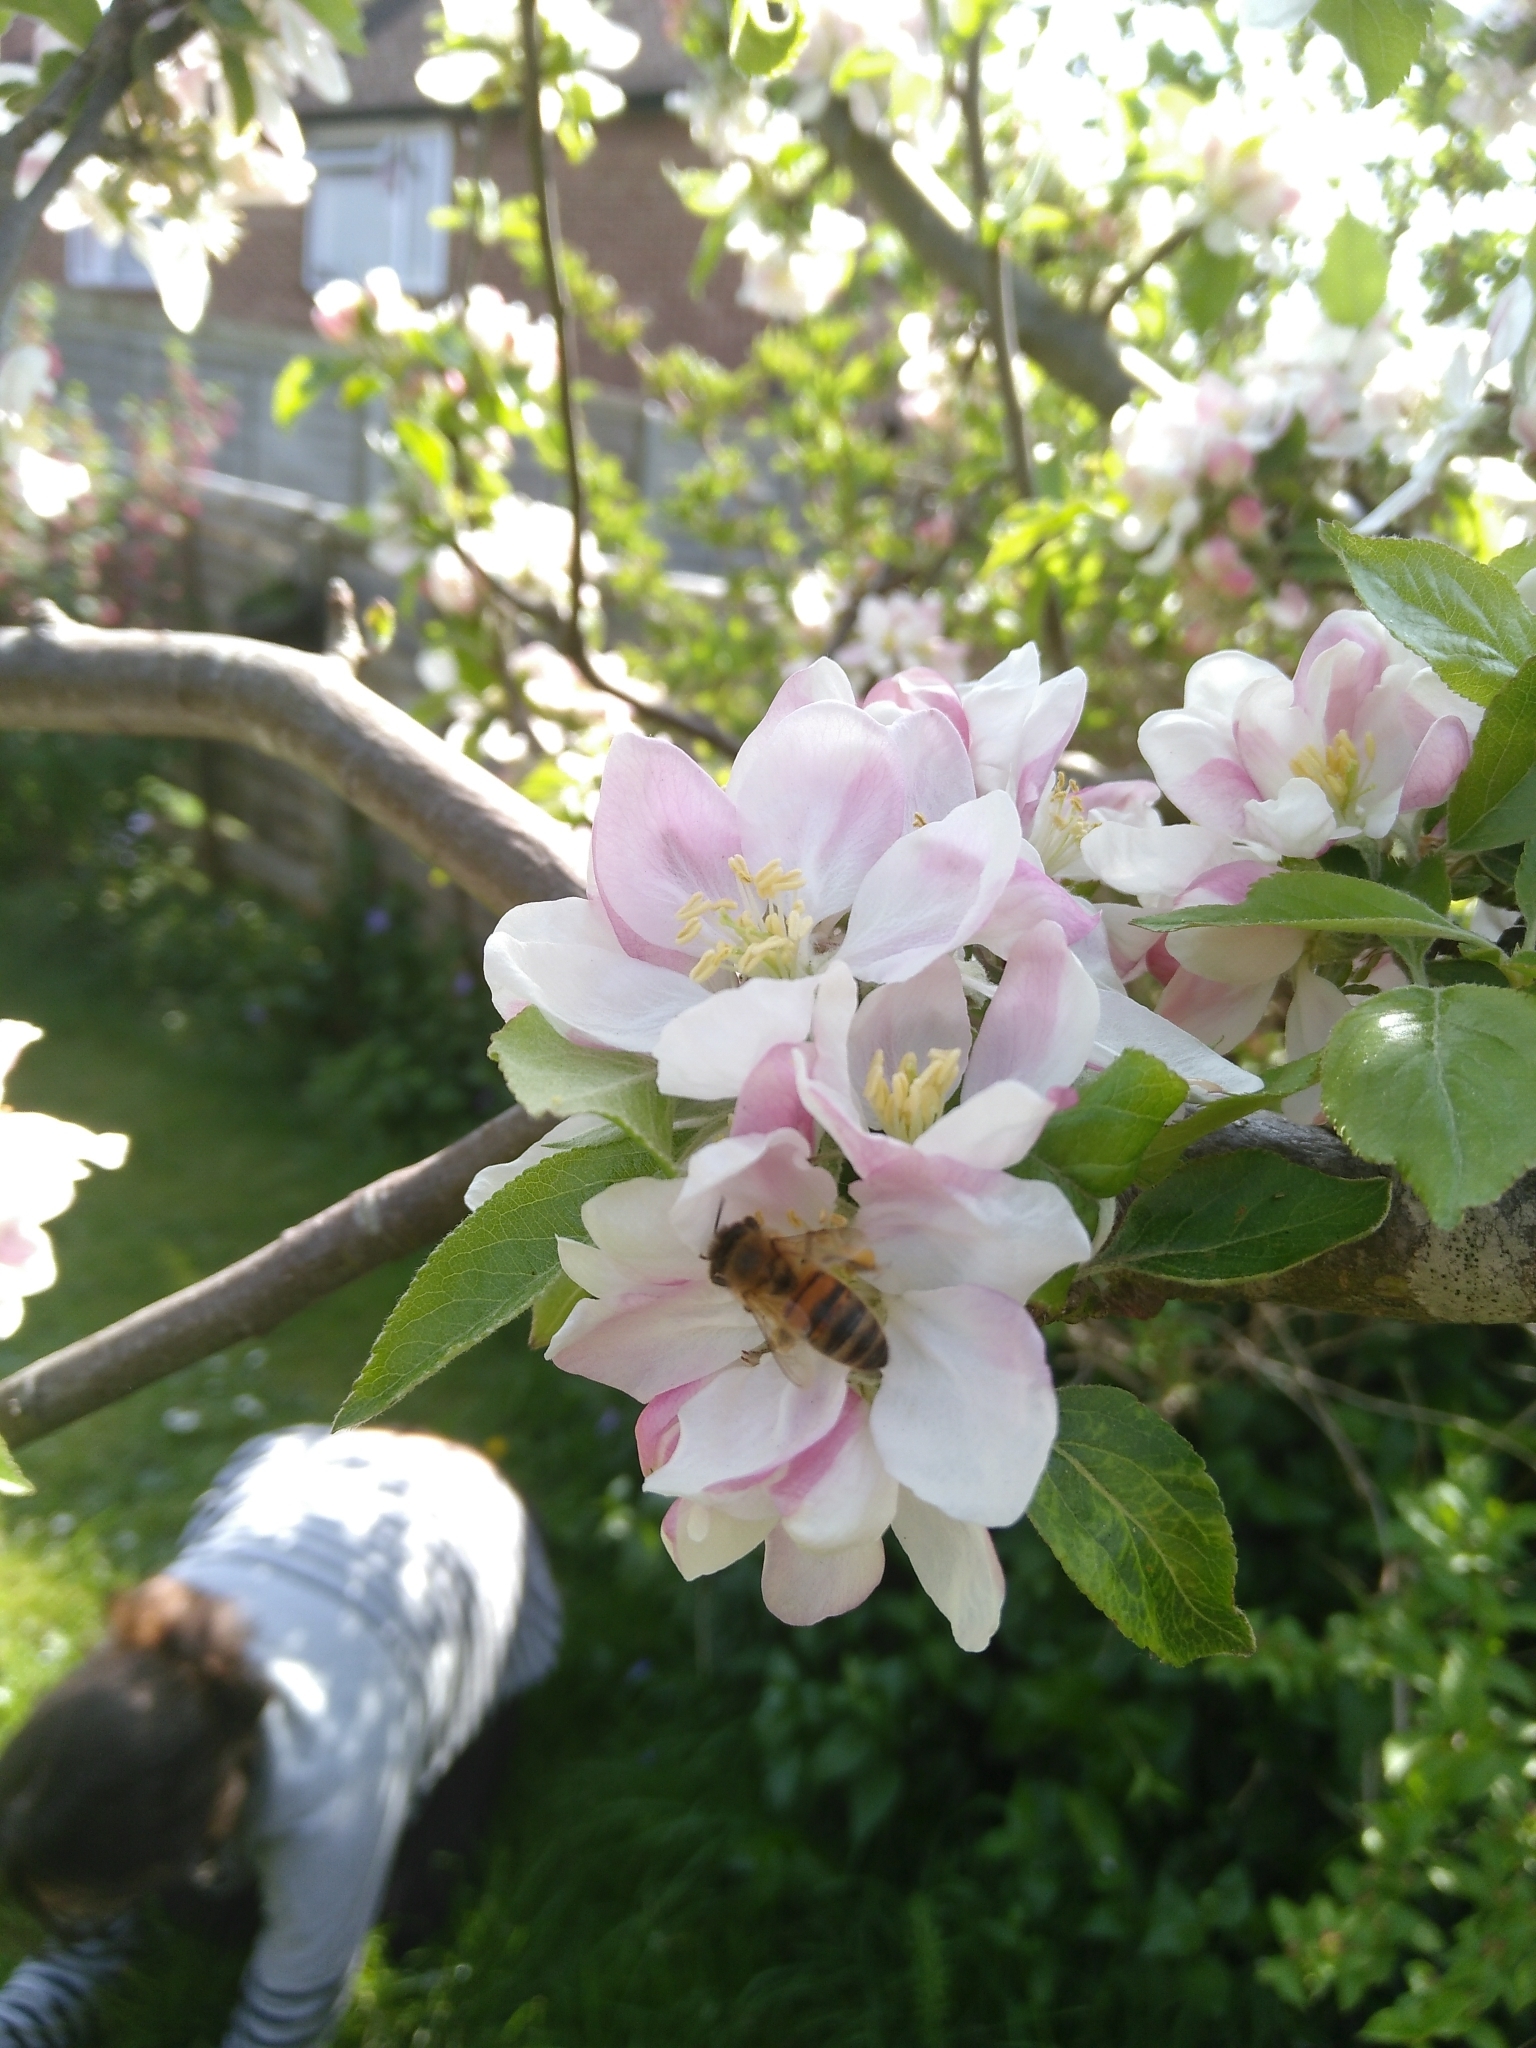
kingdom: Animalia
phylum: Arthropoda
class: Insecta
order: Hymenoptera
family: Apidae
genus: Apis
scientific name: Apis mellifera
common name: Honey bee
